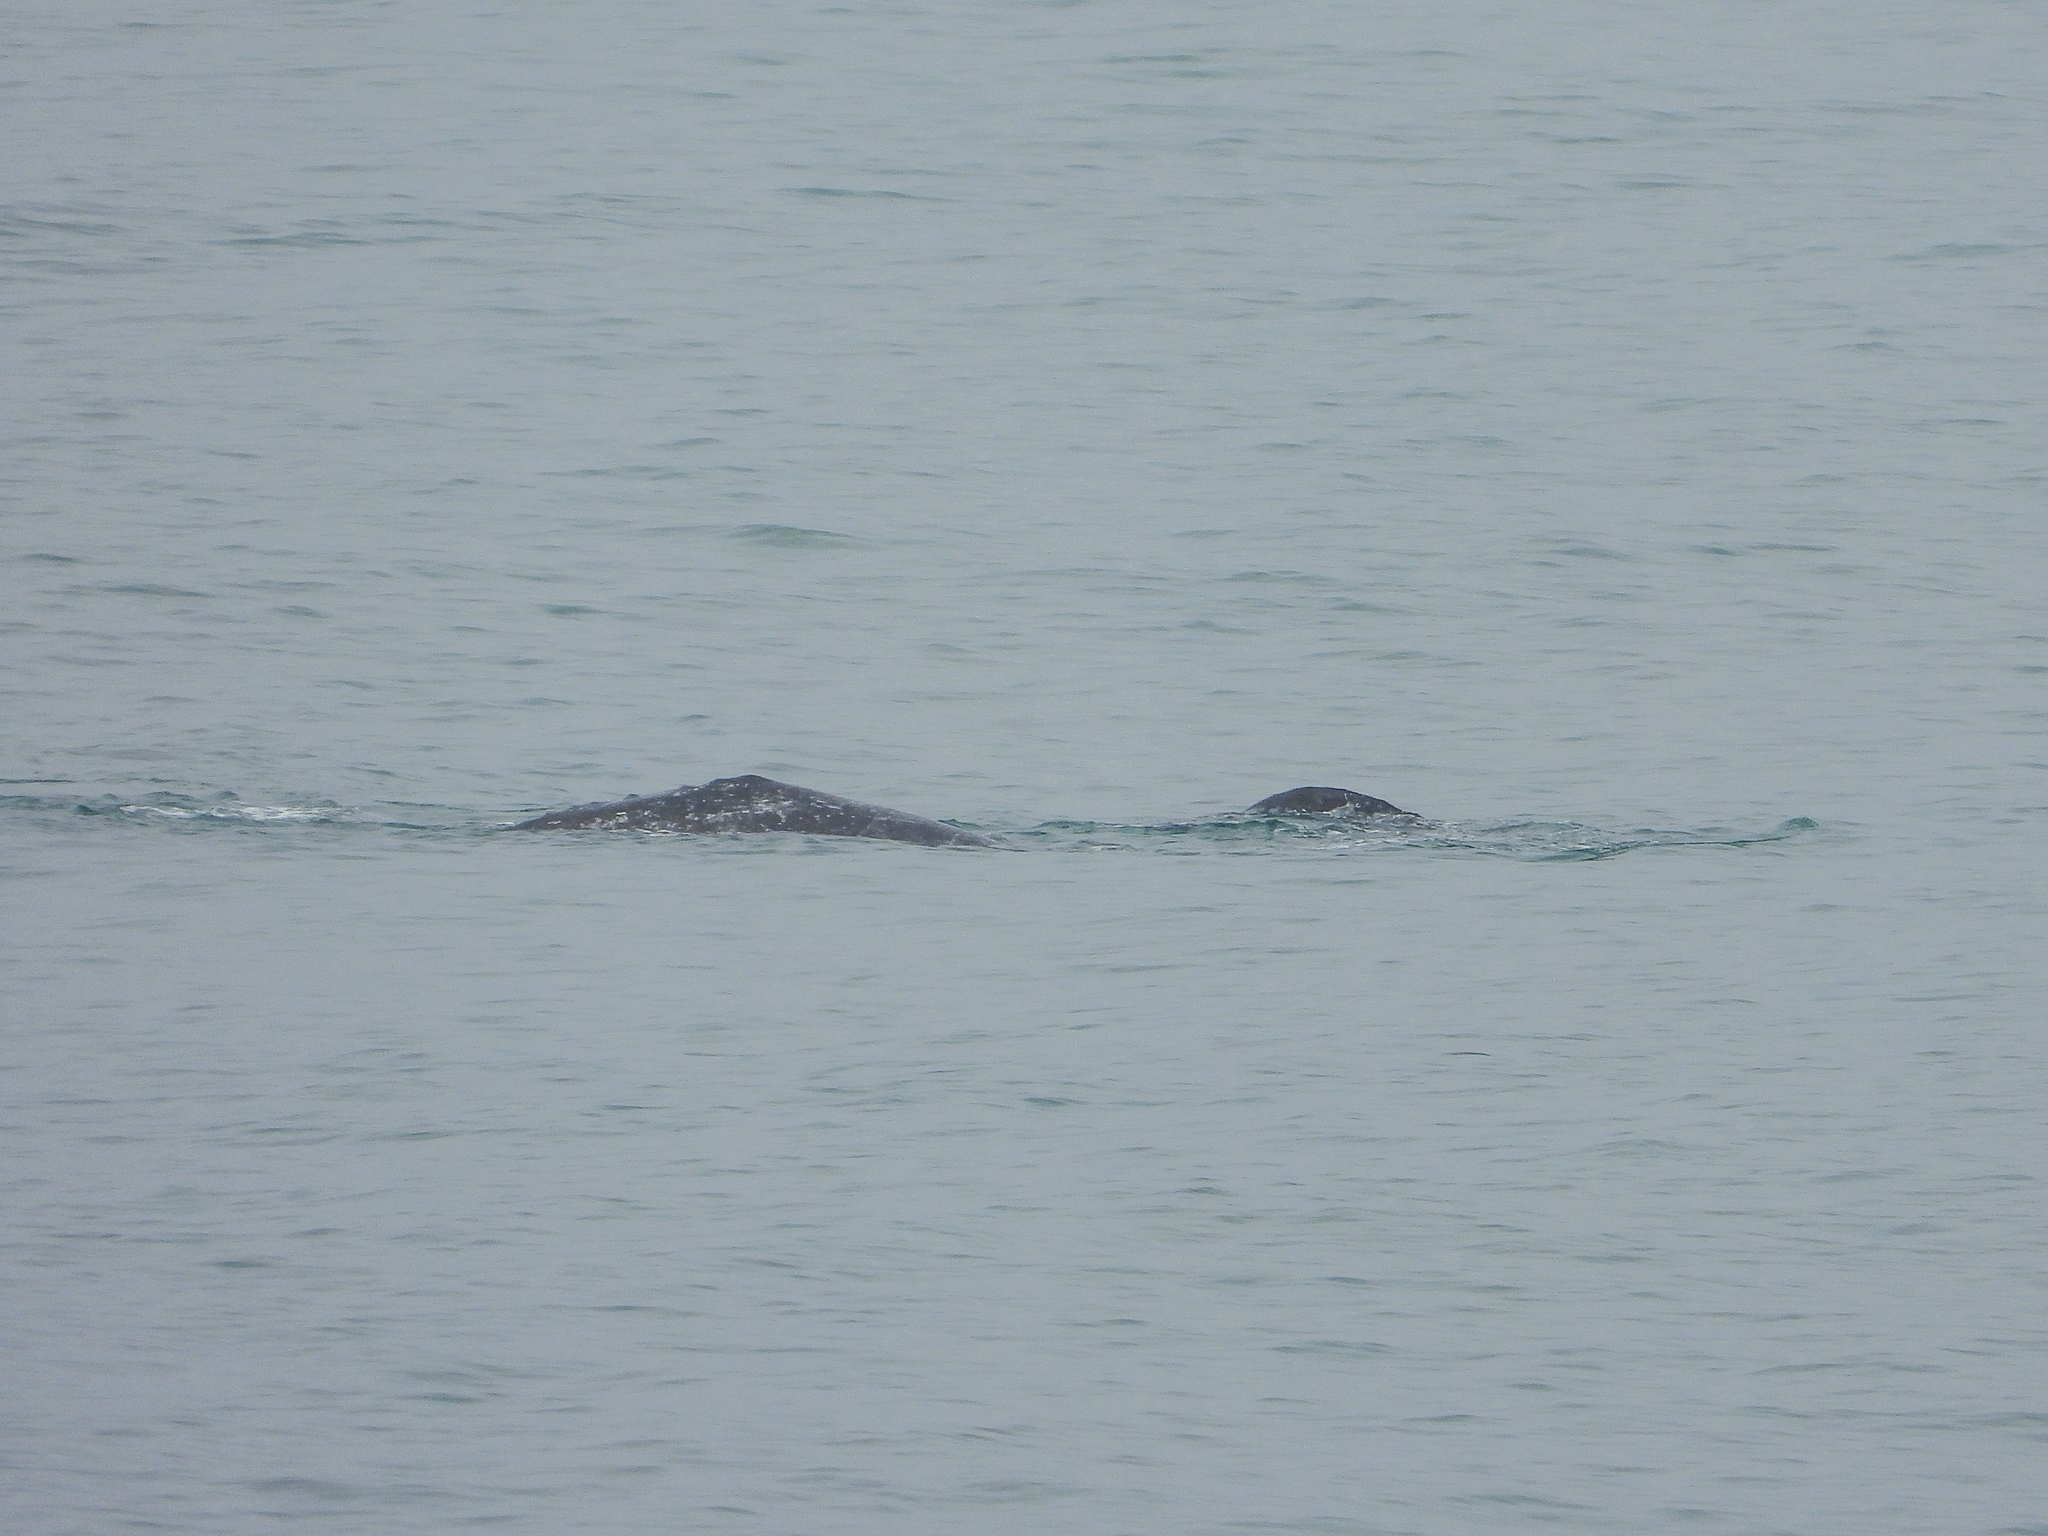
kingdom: Animalia
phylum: Chordata
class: Mammalia
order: Cetacea
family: Eschrichtiidae
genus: Eschrichtius
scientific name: Eschrichtius robustus
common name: Gray whale
